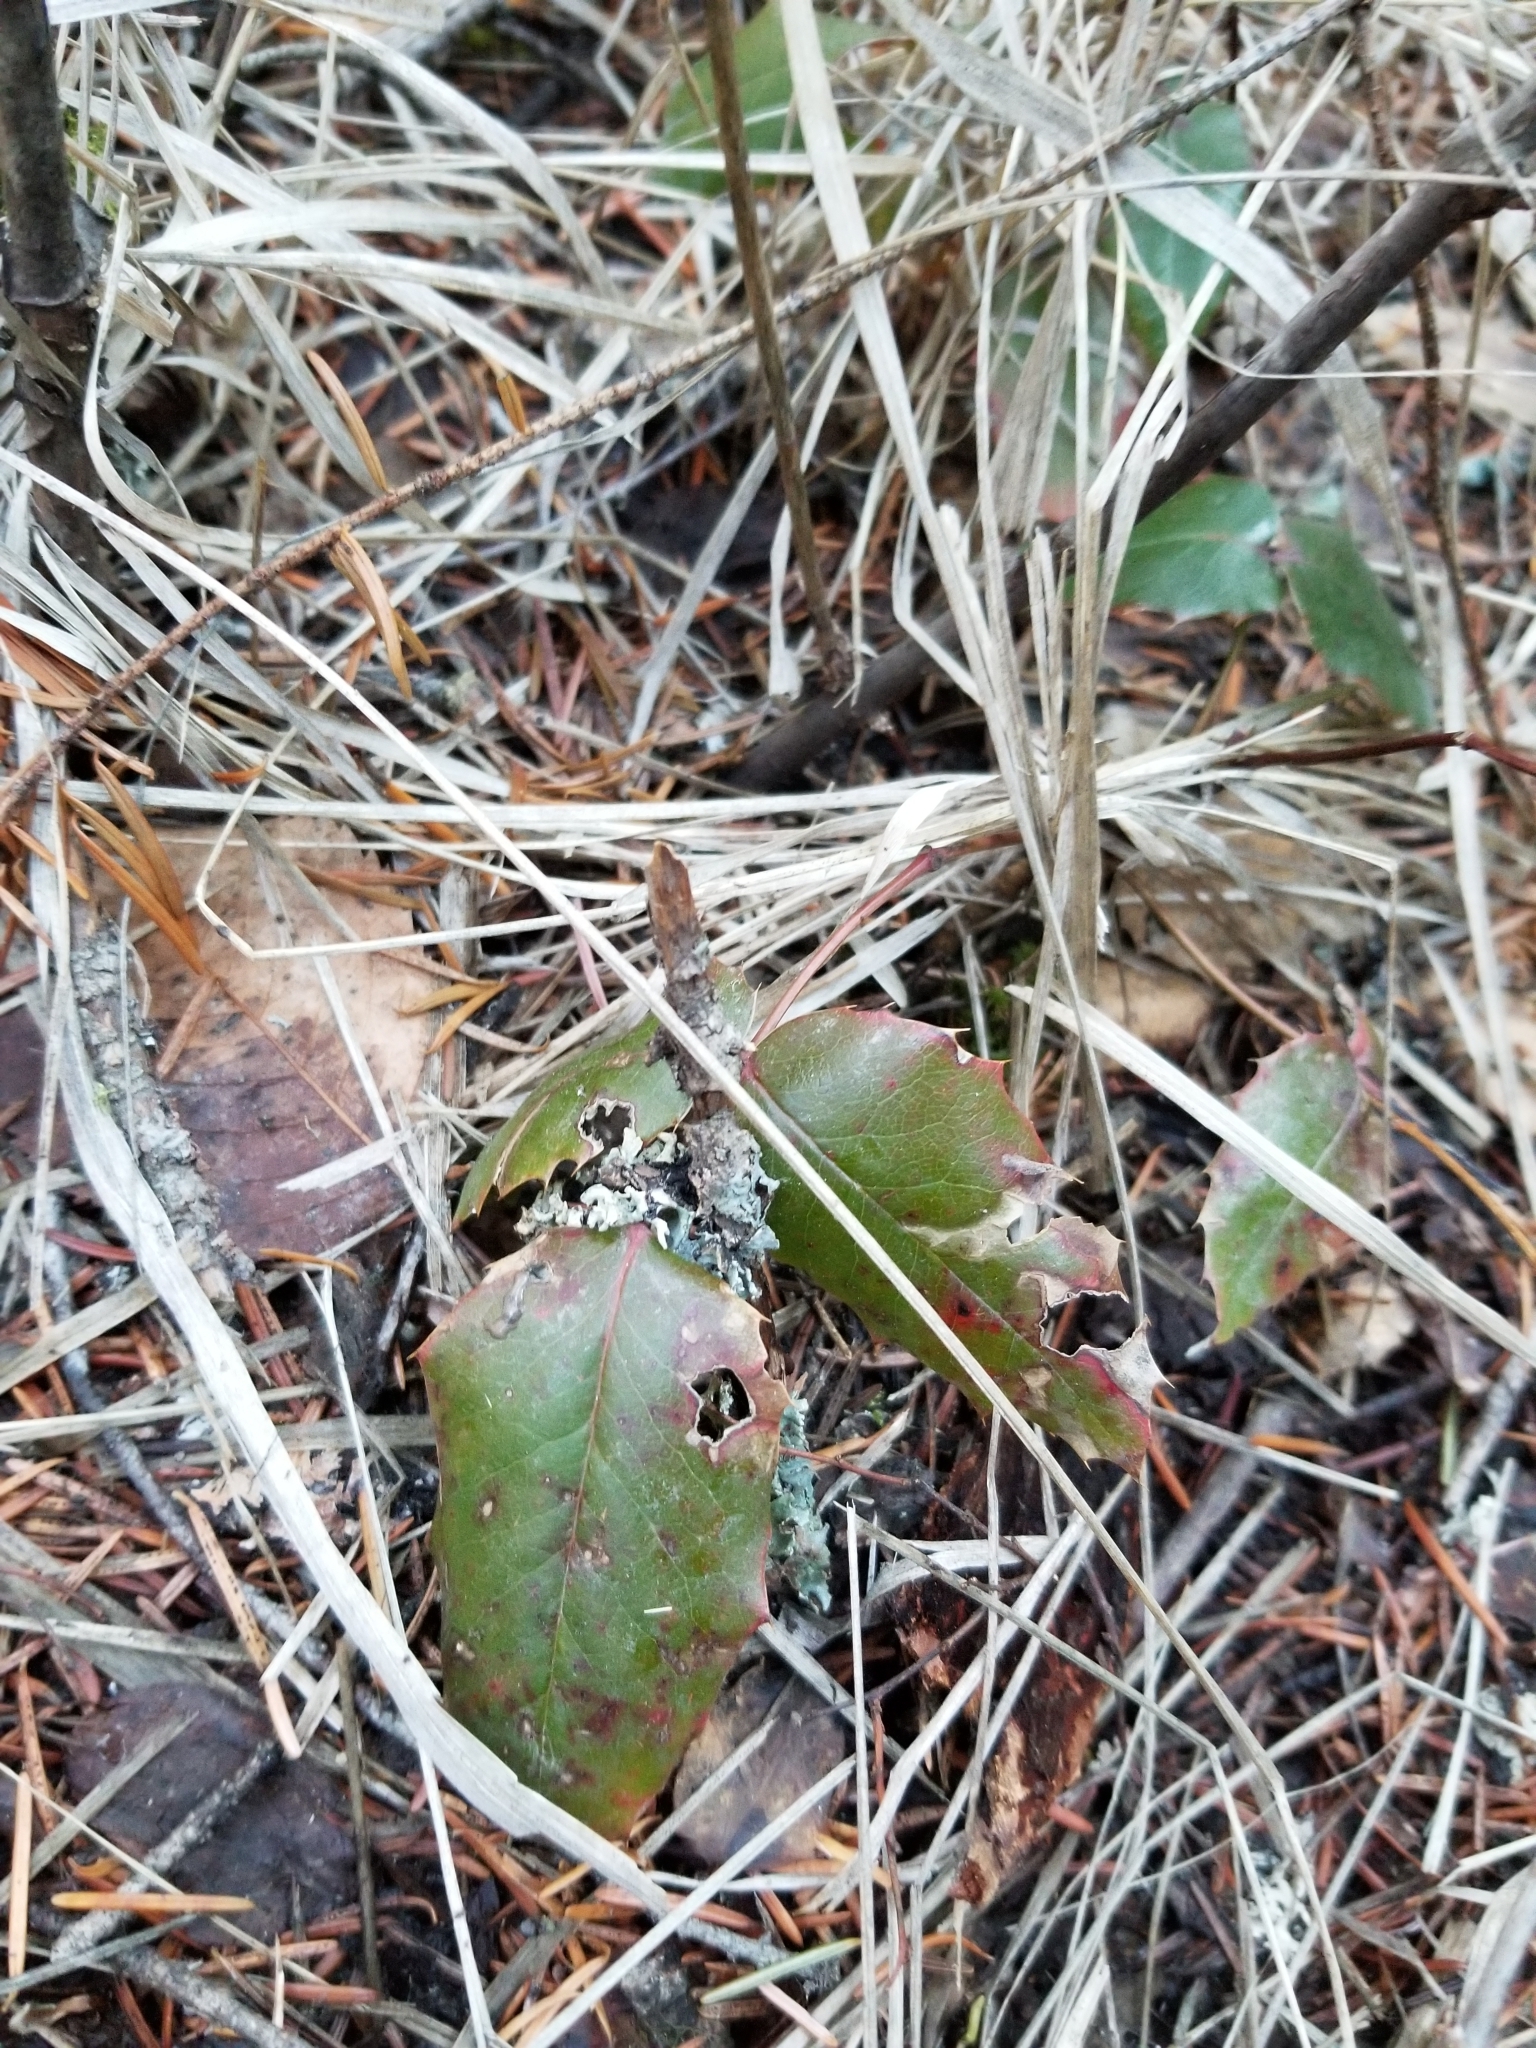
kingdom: Plantae
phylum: Tracheophyta
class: Magnoliopsida
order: Ranunculales
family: Berberidaceae
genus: Mahonia
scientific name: Mahonia aquifolium
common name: Oregon-grape
